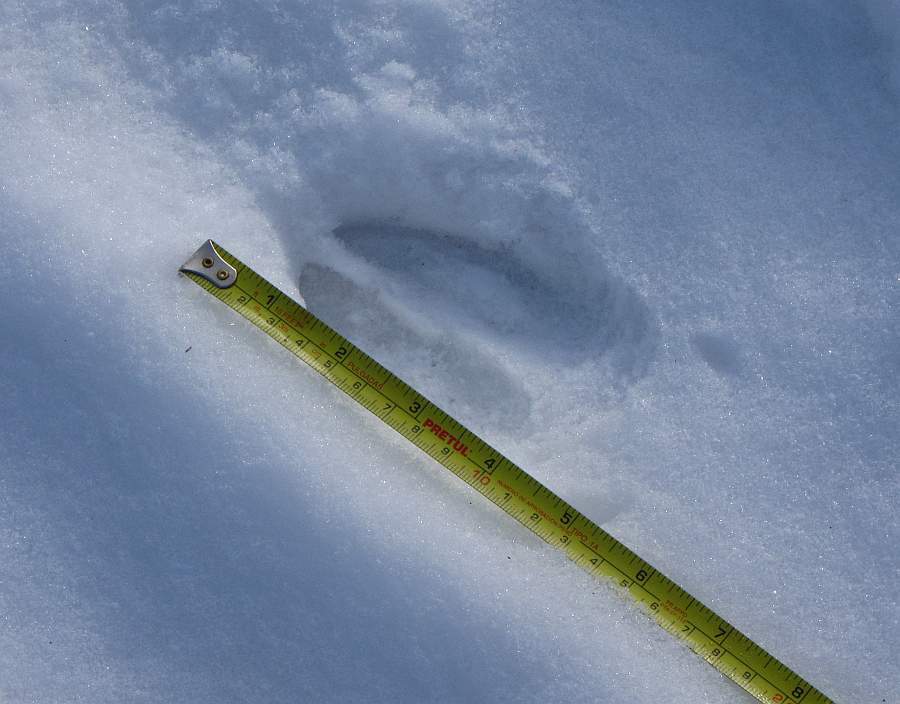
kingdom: Animalia
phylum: Chordata
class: Mammalia
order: Artiodactyla
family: Cervidae
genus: Odocoileus
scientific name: Odocoileus virginianus
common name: White-tailed deer
